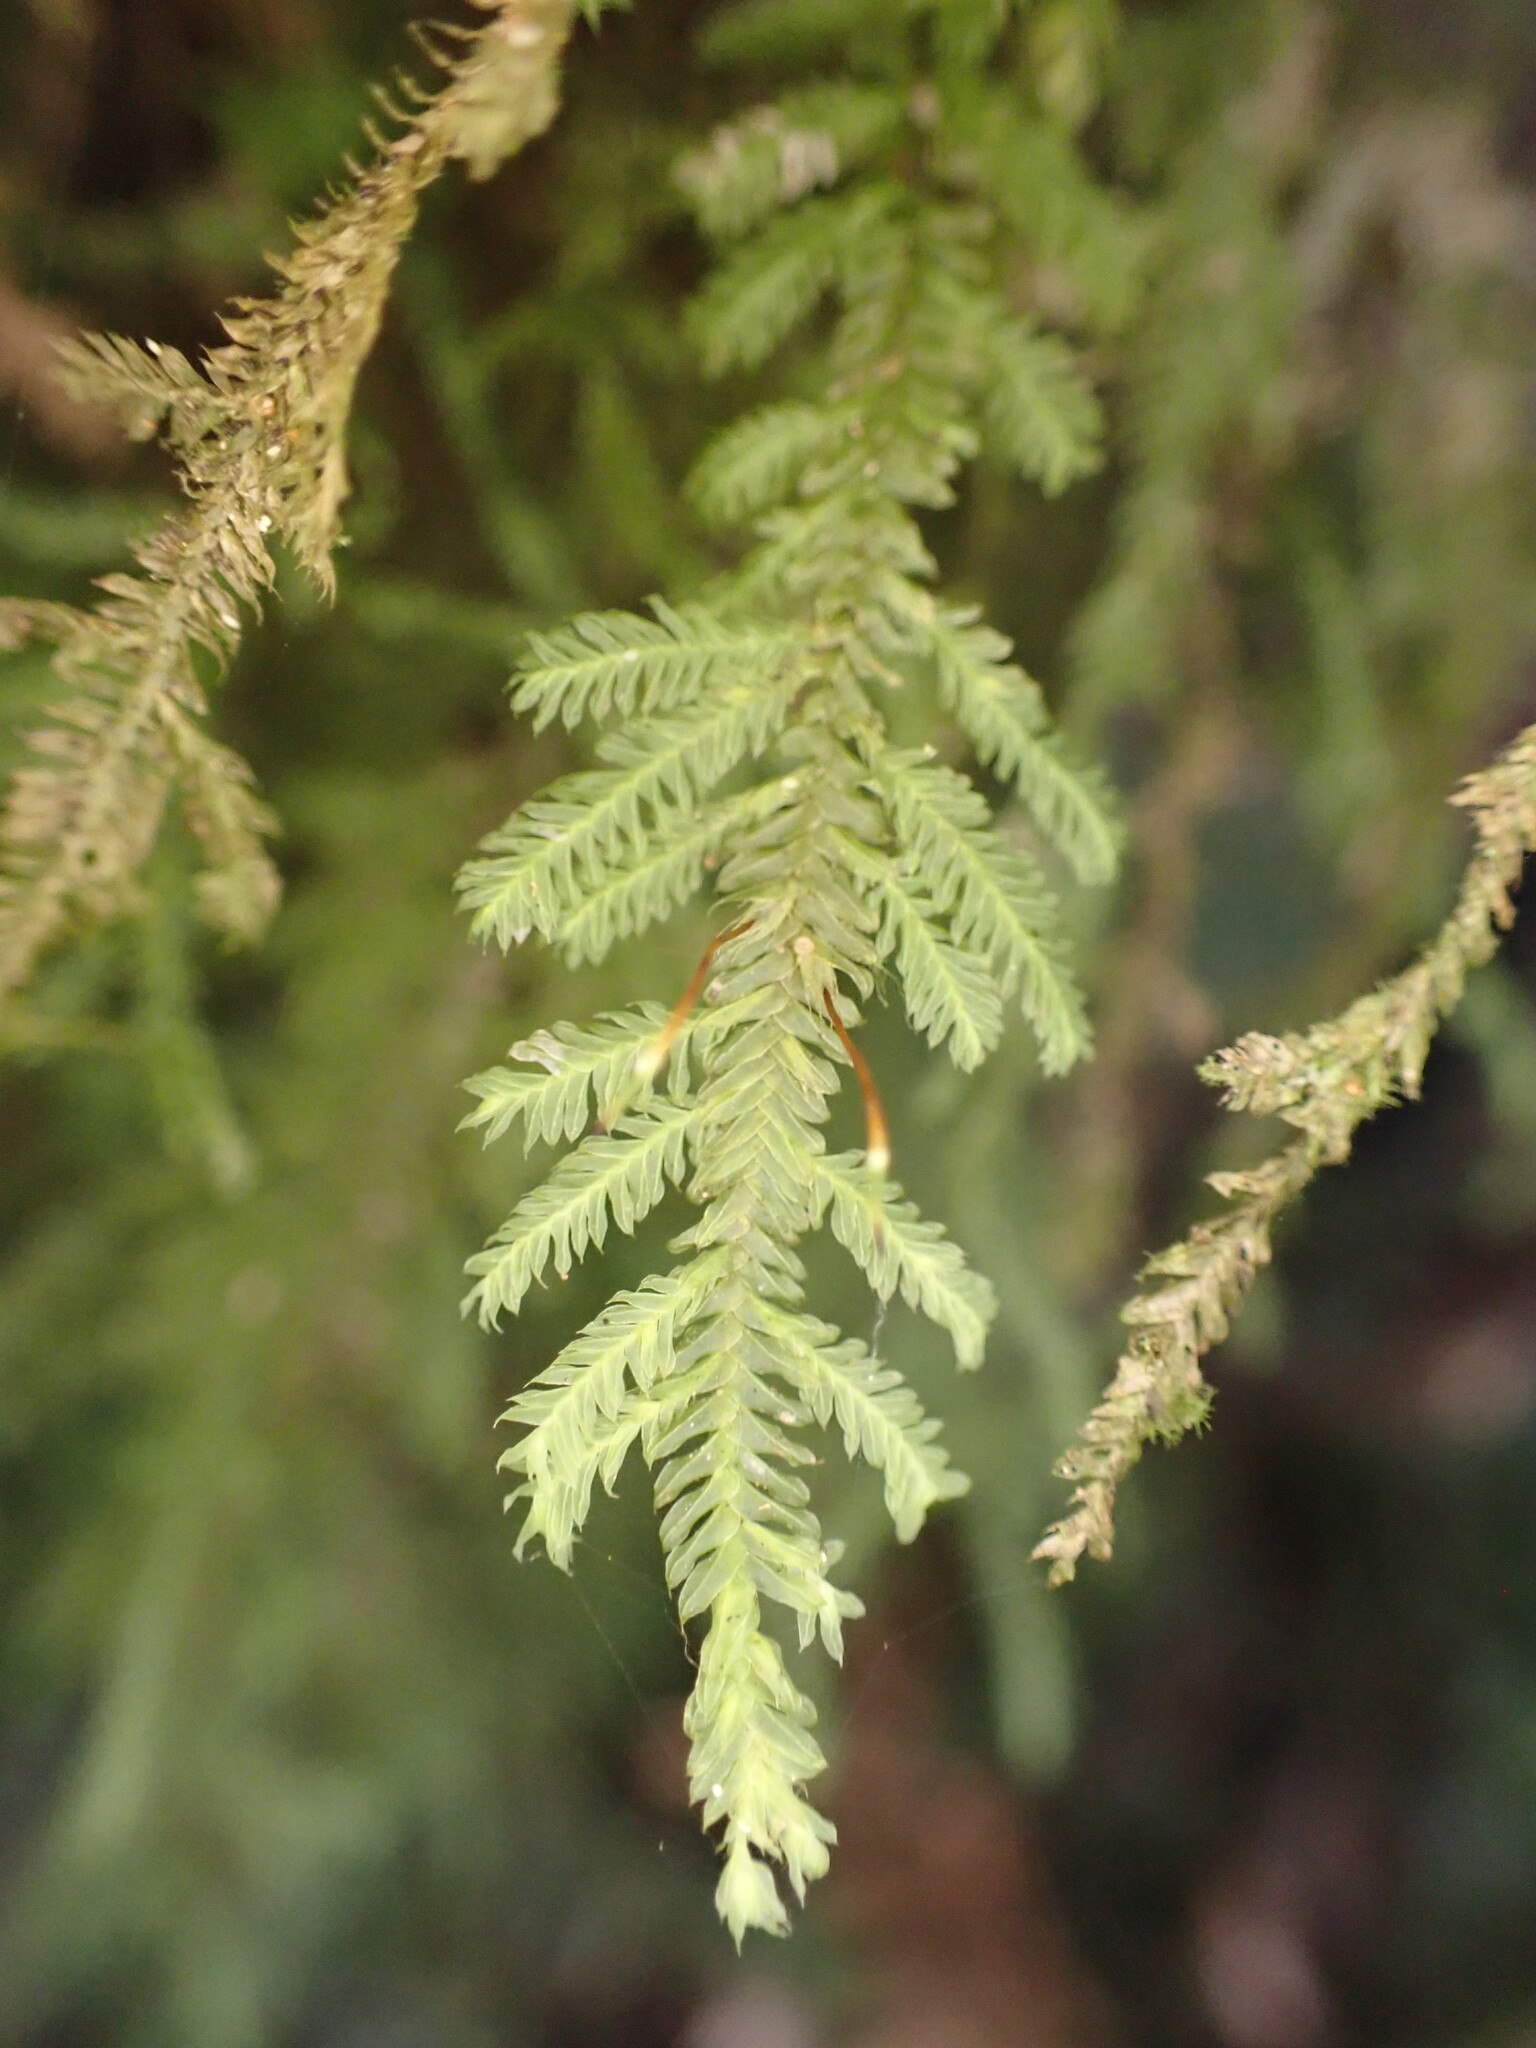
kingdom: Plantae
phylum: Bryophyta
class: Bryopsida
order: Hypopterygiales
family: Hypopterygiaceae
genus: Lopidium
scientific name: Lopidium concinnum
